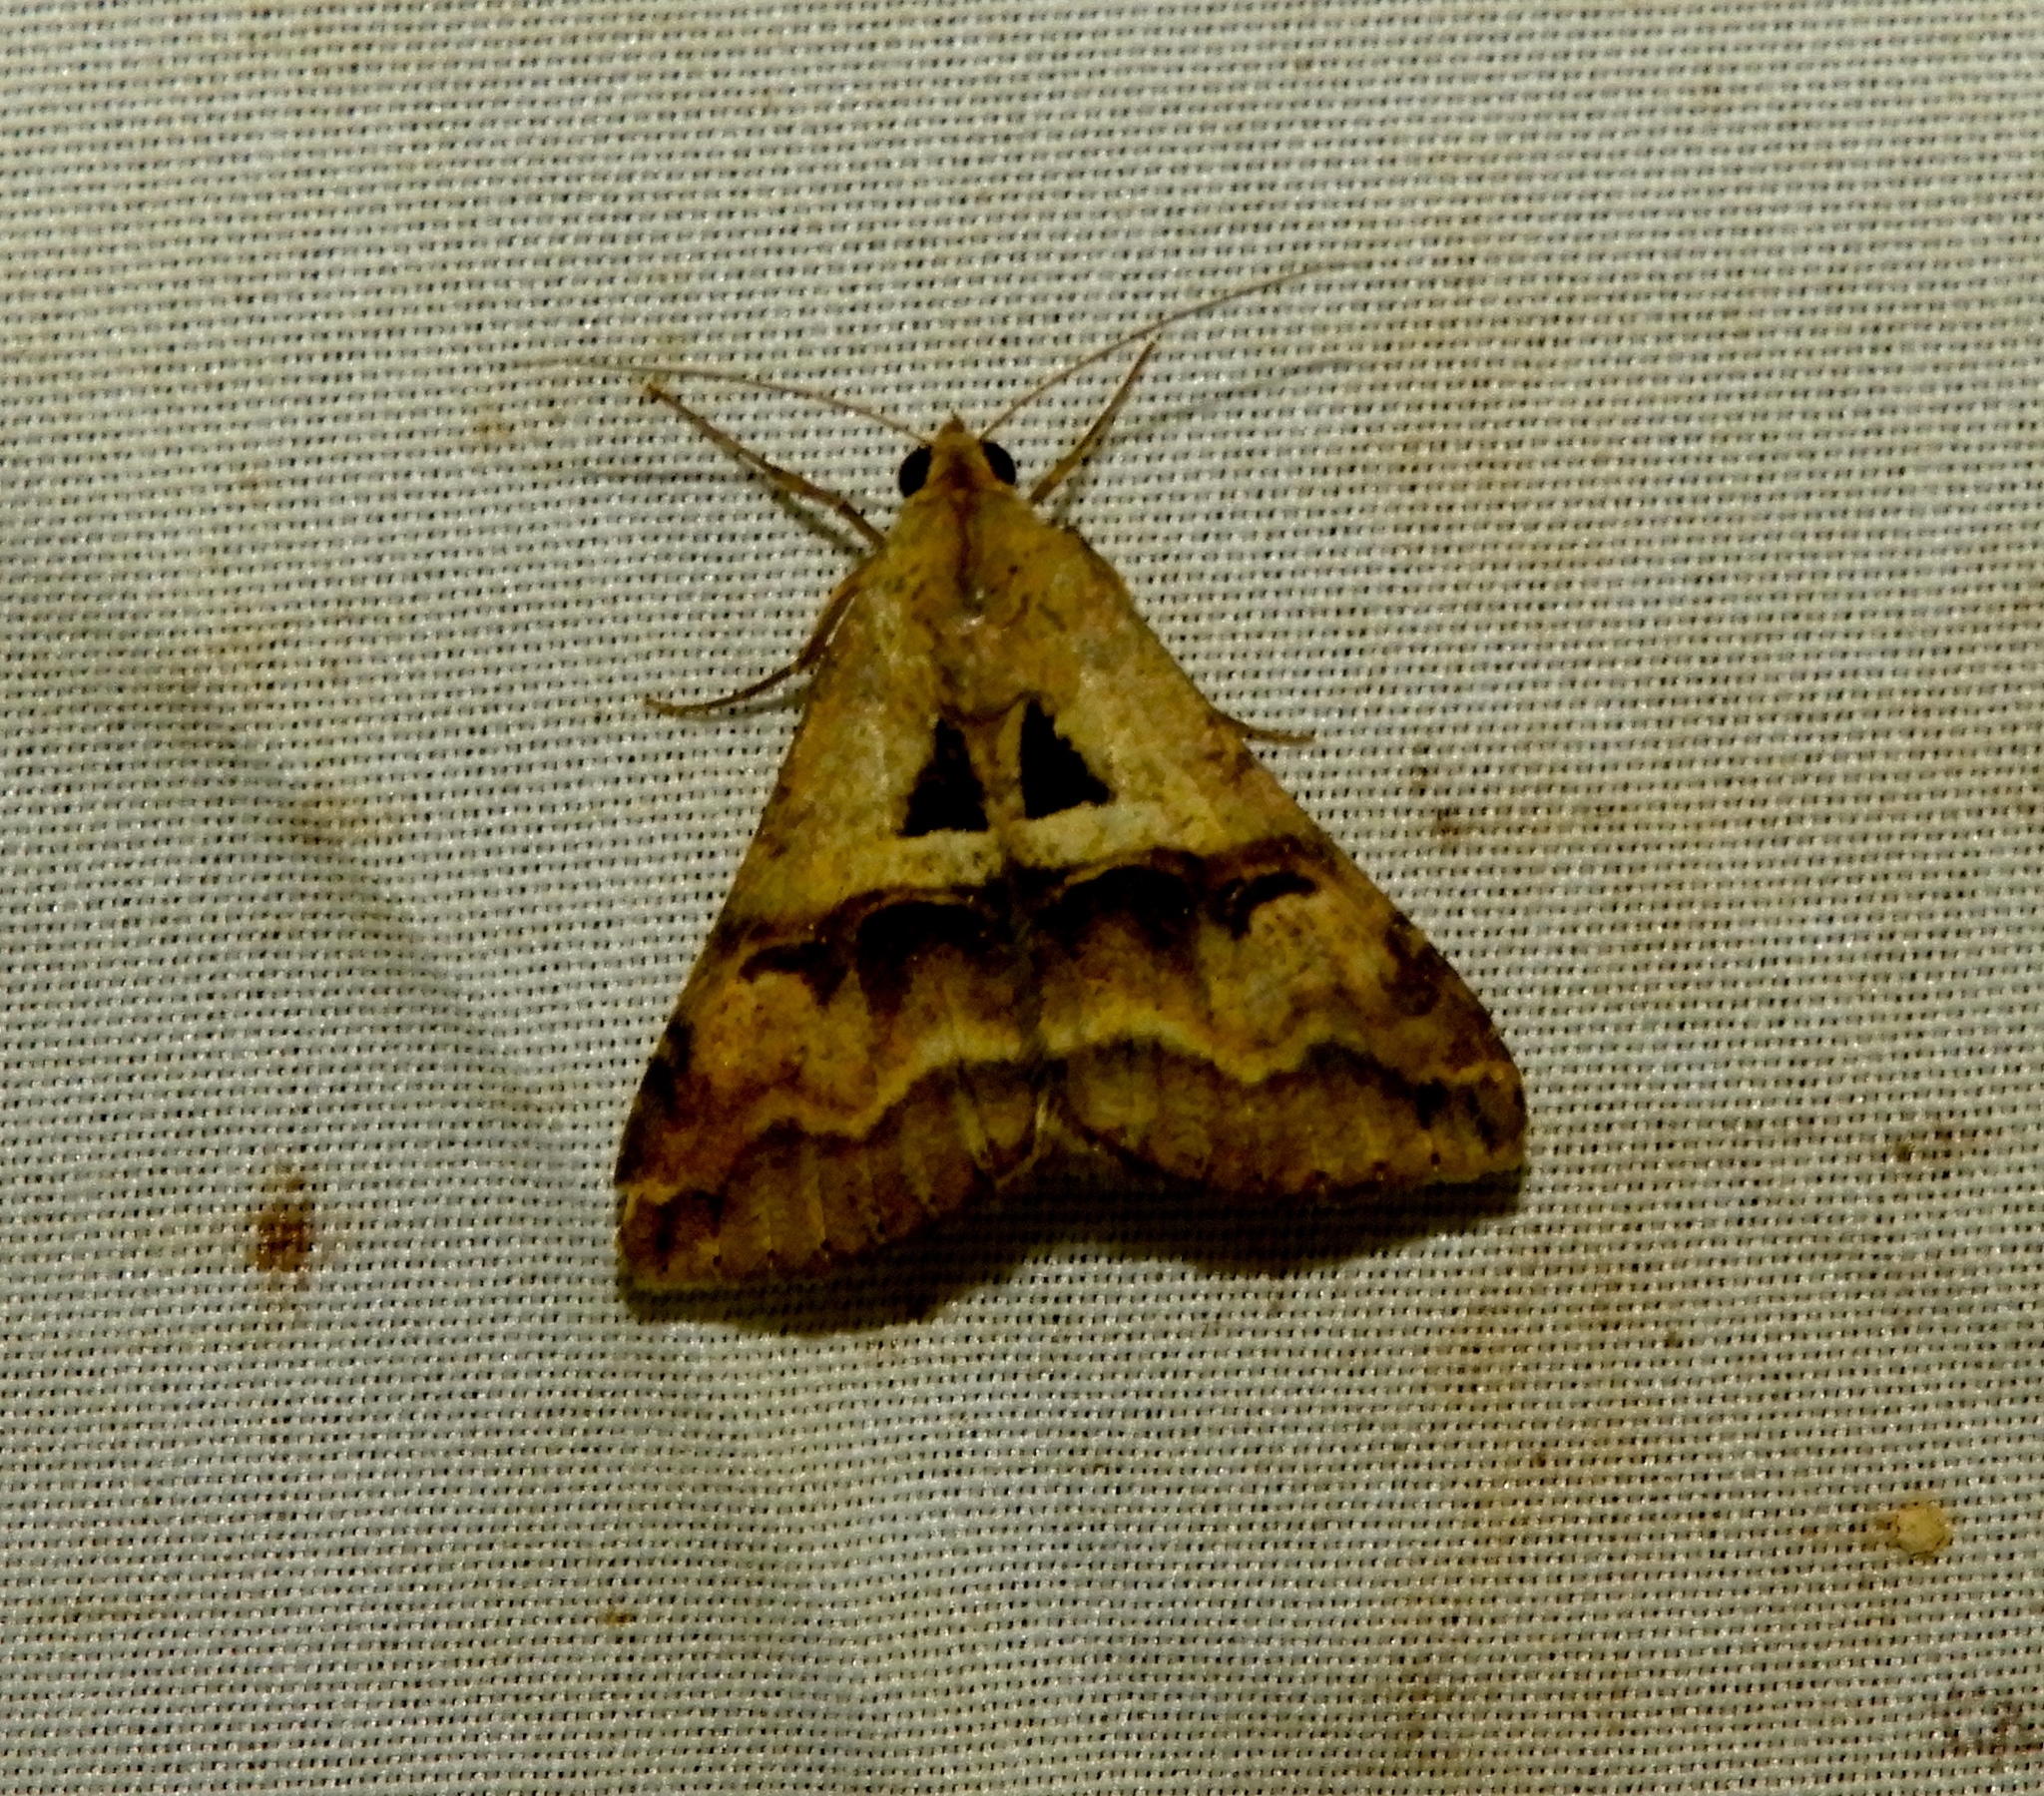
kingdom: Animalia
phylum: Arthropoda
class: Insecta
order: Lepidoptera
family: Erebidae
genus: Melipotis
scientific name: Melipotis cellaris
